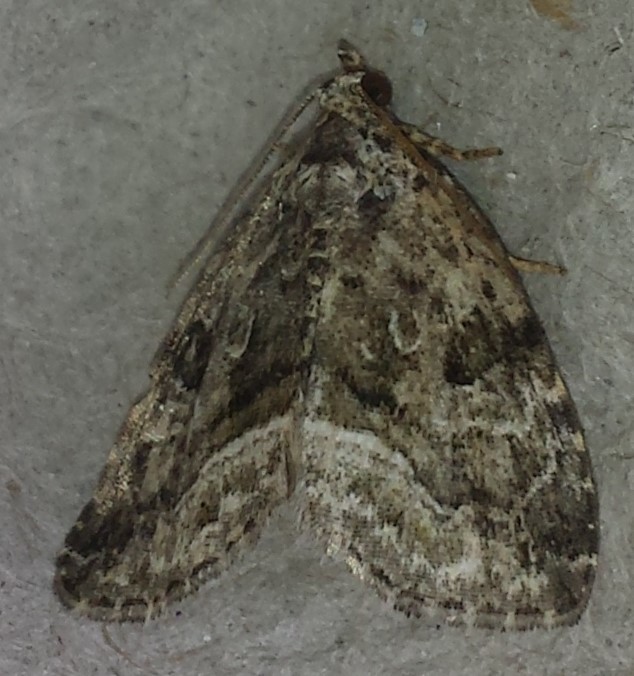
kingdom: Animalia
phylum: Arthropoda
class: Insecta
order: Lepidoptera
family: Noctuidae
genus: Protodeltote
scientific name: Protodeltote muscosula
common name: Large mossy glyph
